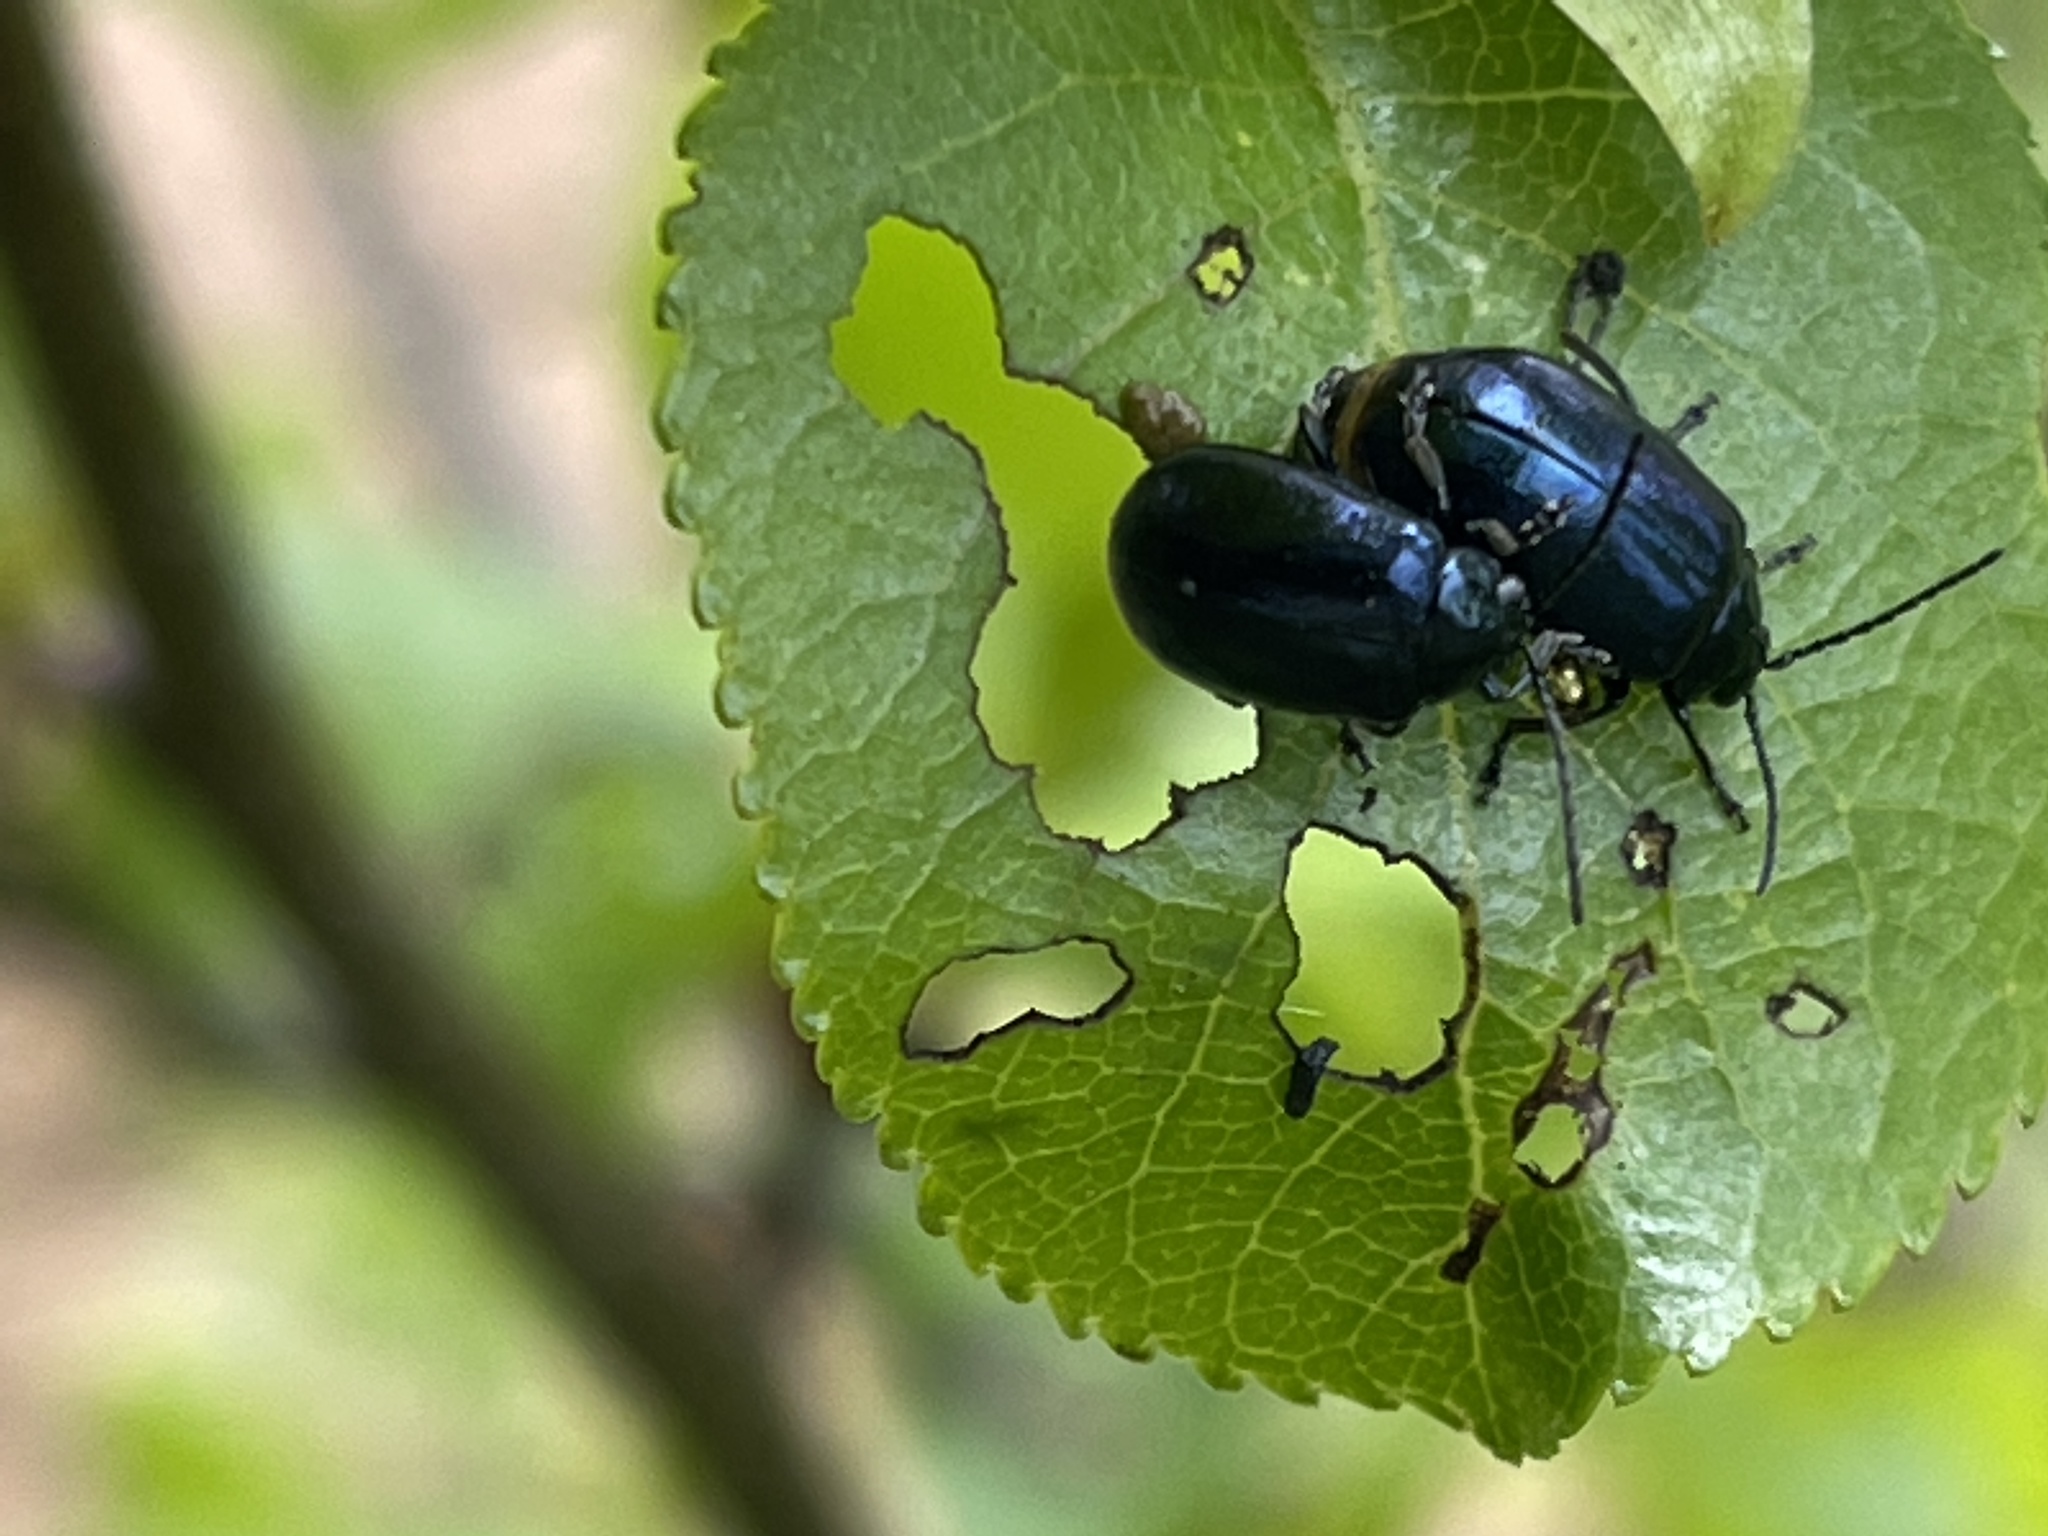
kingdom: Animalia
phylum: Arthropoda
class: Insecta
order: Coleoptera
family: Chrysomelidae
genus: Agelastica
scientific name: Agelastica alni
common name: Alder leaf beetle
